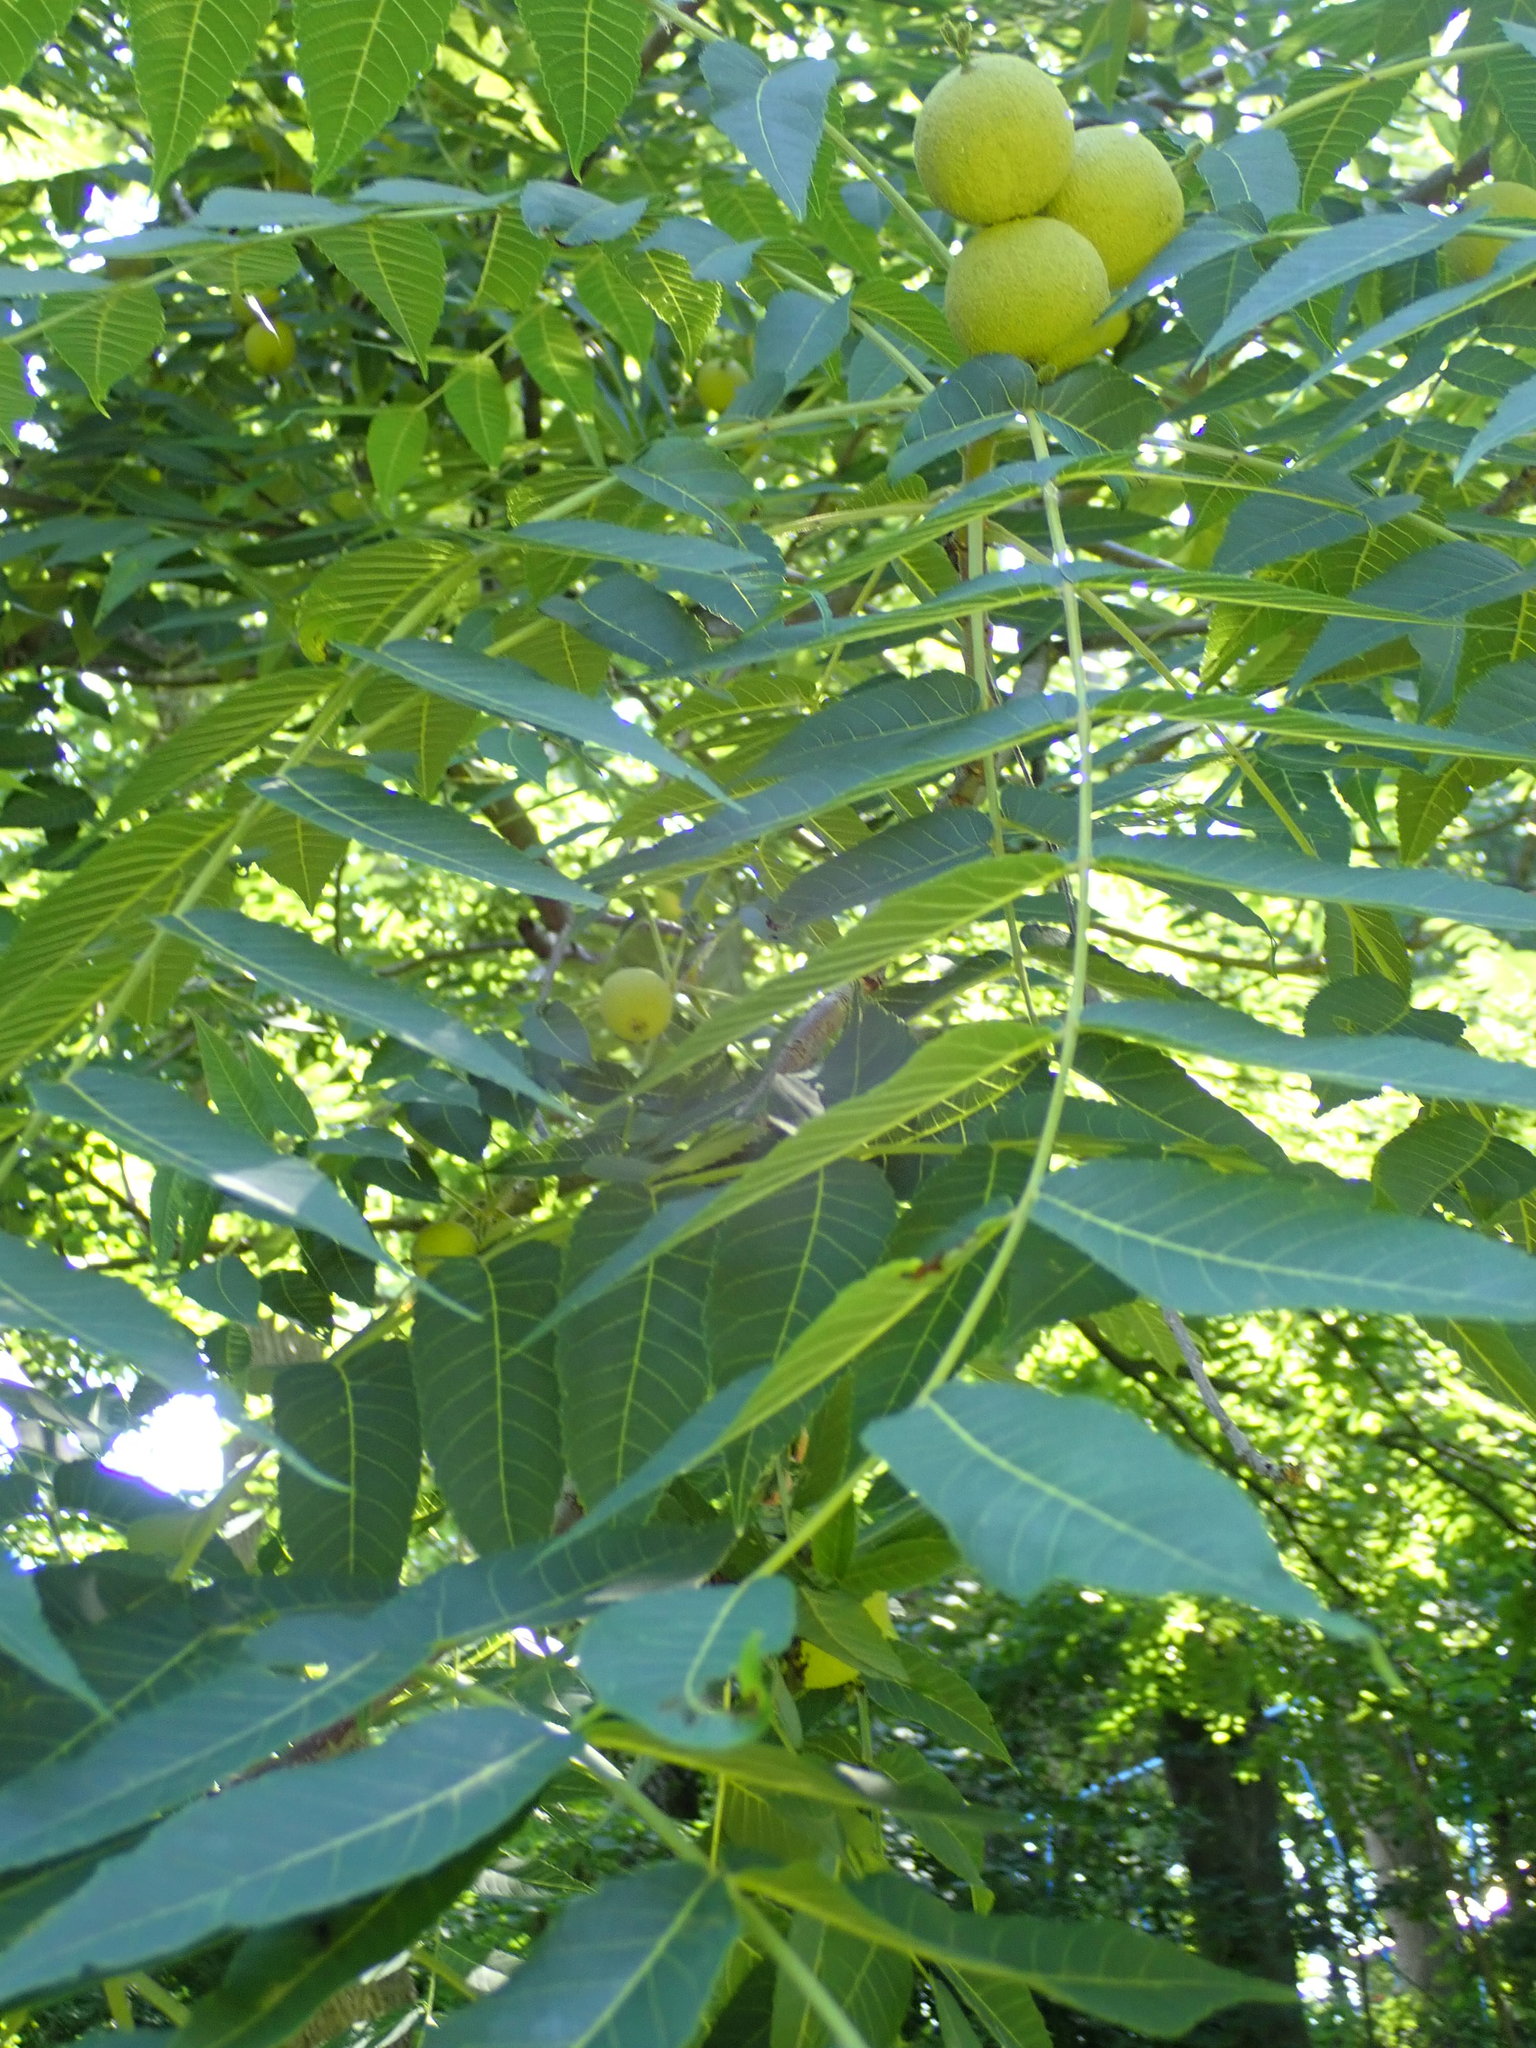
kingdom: Plantae
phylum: Tracheophyta
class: Magnoliopsida
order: Fagales
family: Juglandaceae
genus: Juglans
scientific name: Juglans nigra
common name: Black walnut
